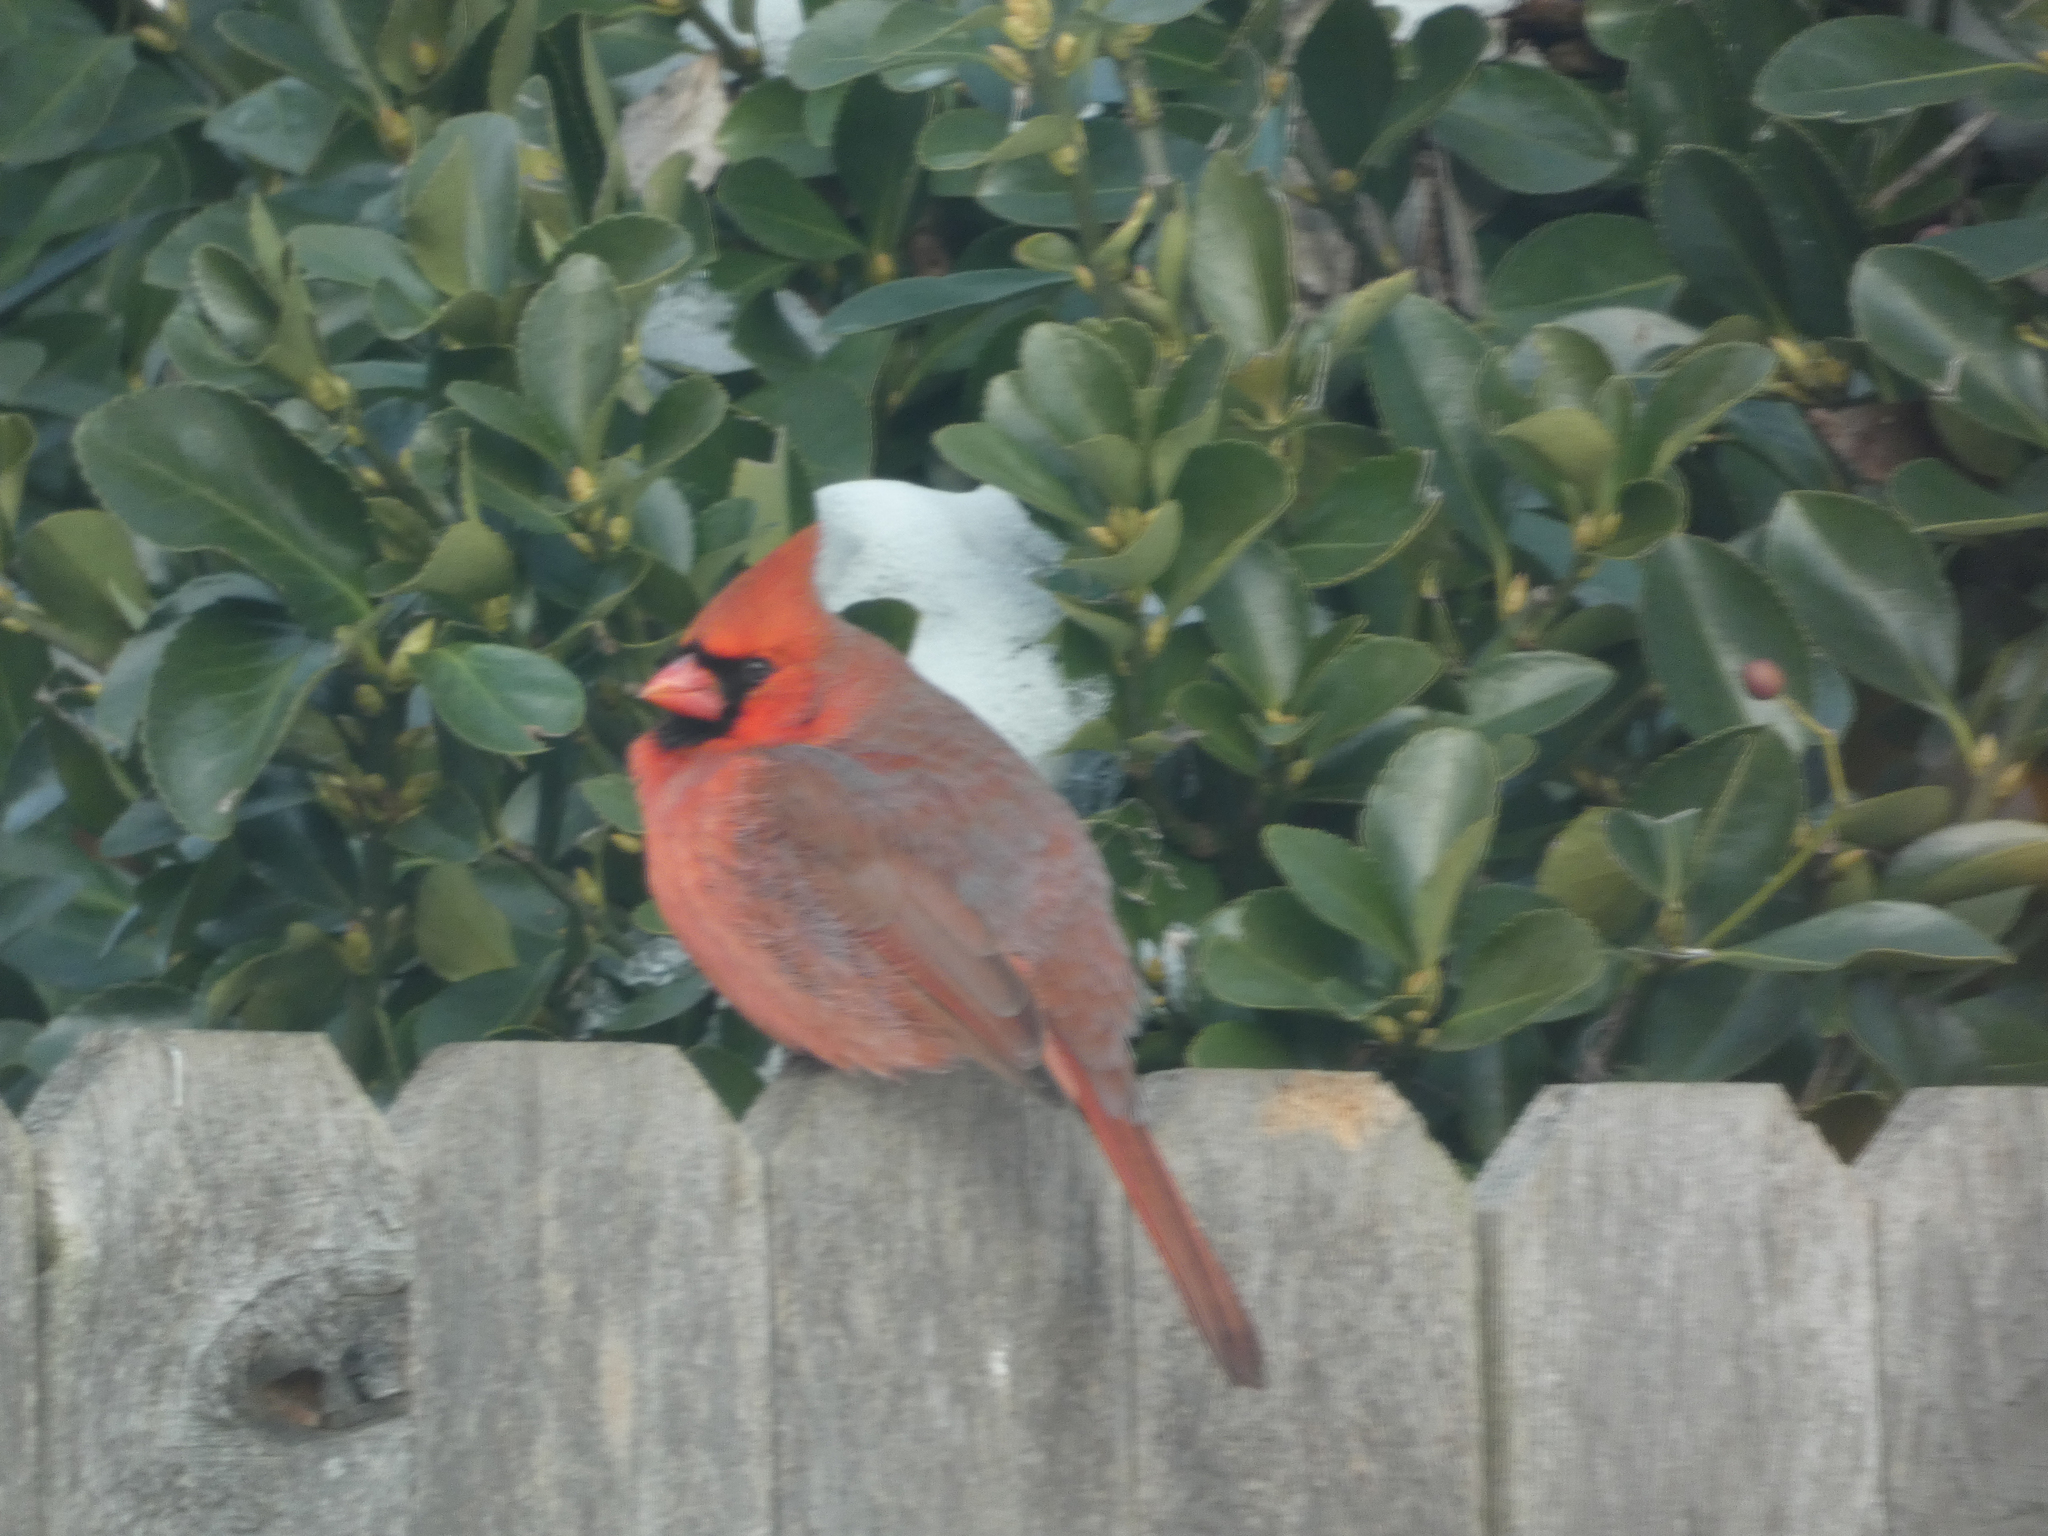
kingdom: Animalia
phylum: Chordata
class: Aves
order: Passeriformes
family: Cardinalidae
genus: Cardinalis
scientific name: Cardinalis cardinalis
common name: Northern cardinal
